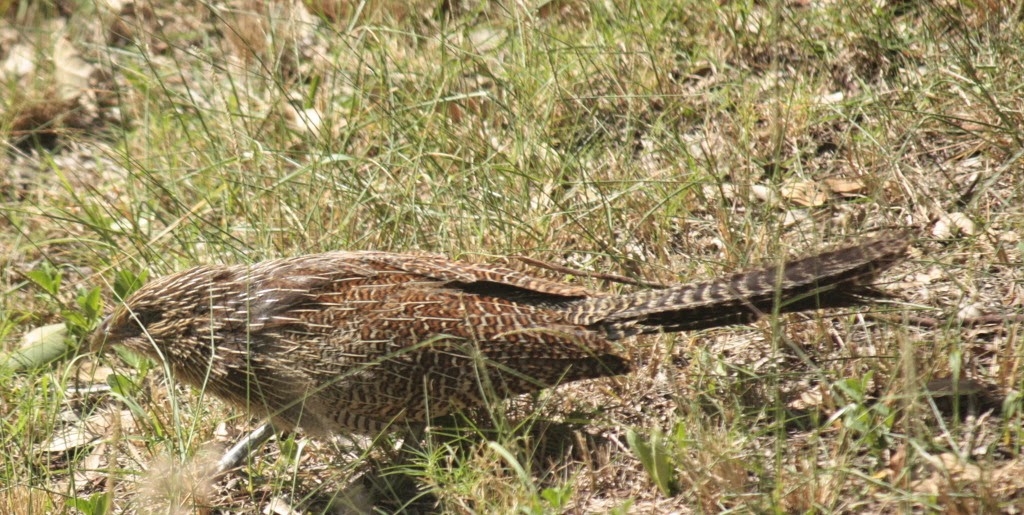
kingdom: Animalia
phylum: Chordata
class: Aves
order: Cuculiformes
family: Cuculidae
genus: Centropus
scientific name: Centropus phasianinus
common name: Pheasant coucal
